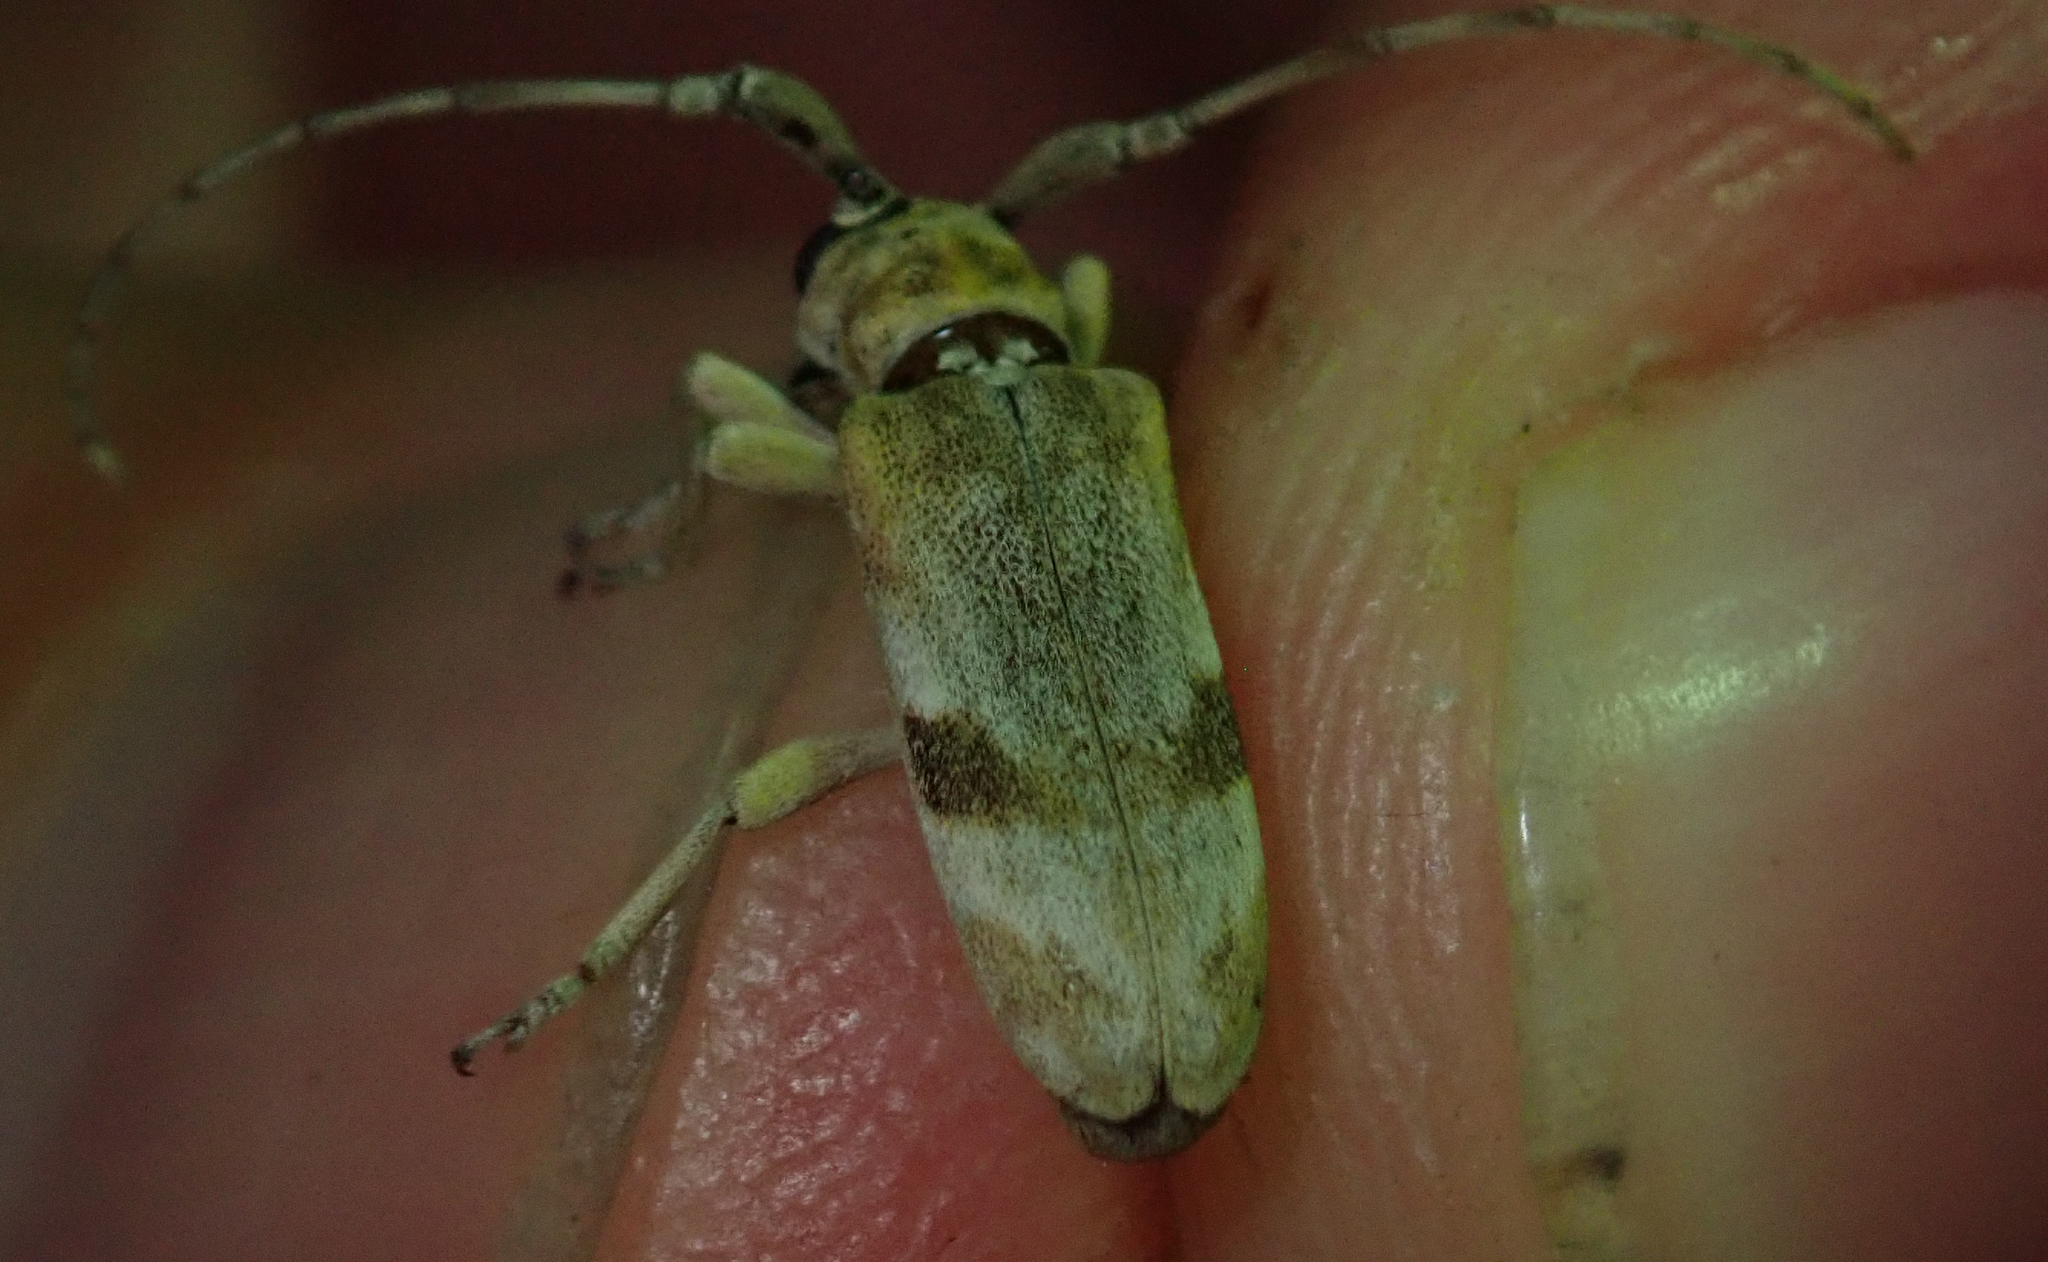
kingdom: Animalia
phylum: Arthropoda
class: Insecta
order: Coleoptera
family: Cerambycidae
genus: Eunidia
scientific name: Eunidia vagevittata
